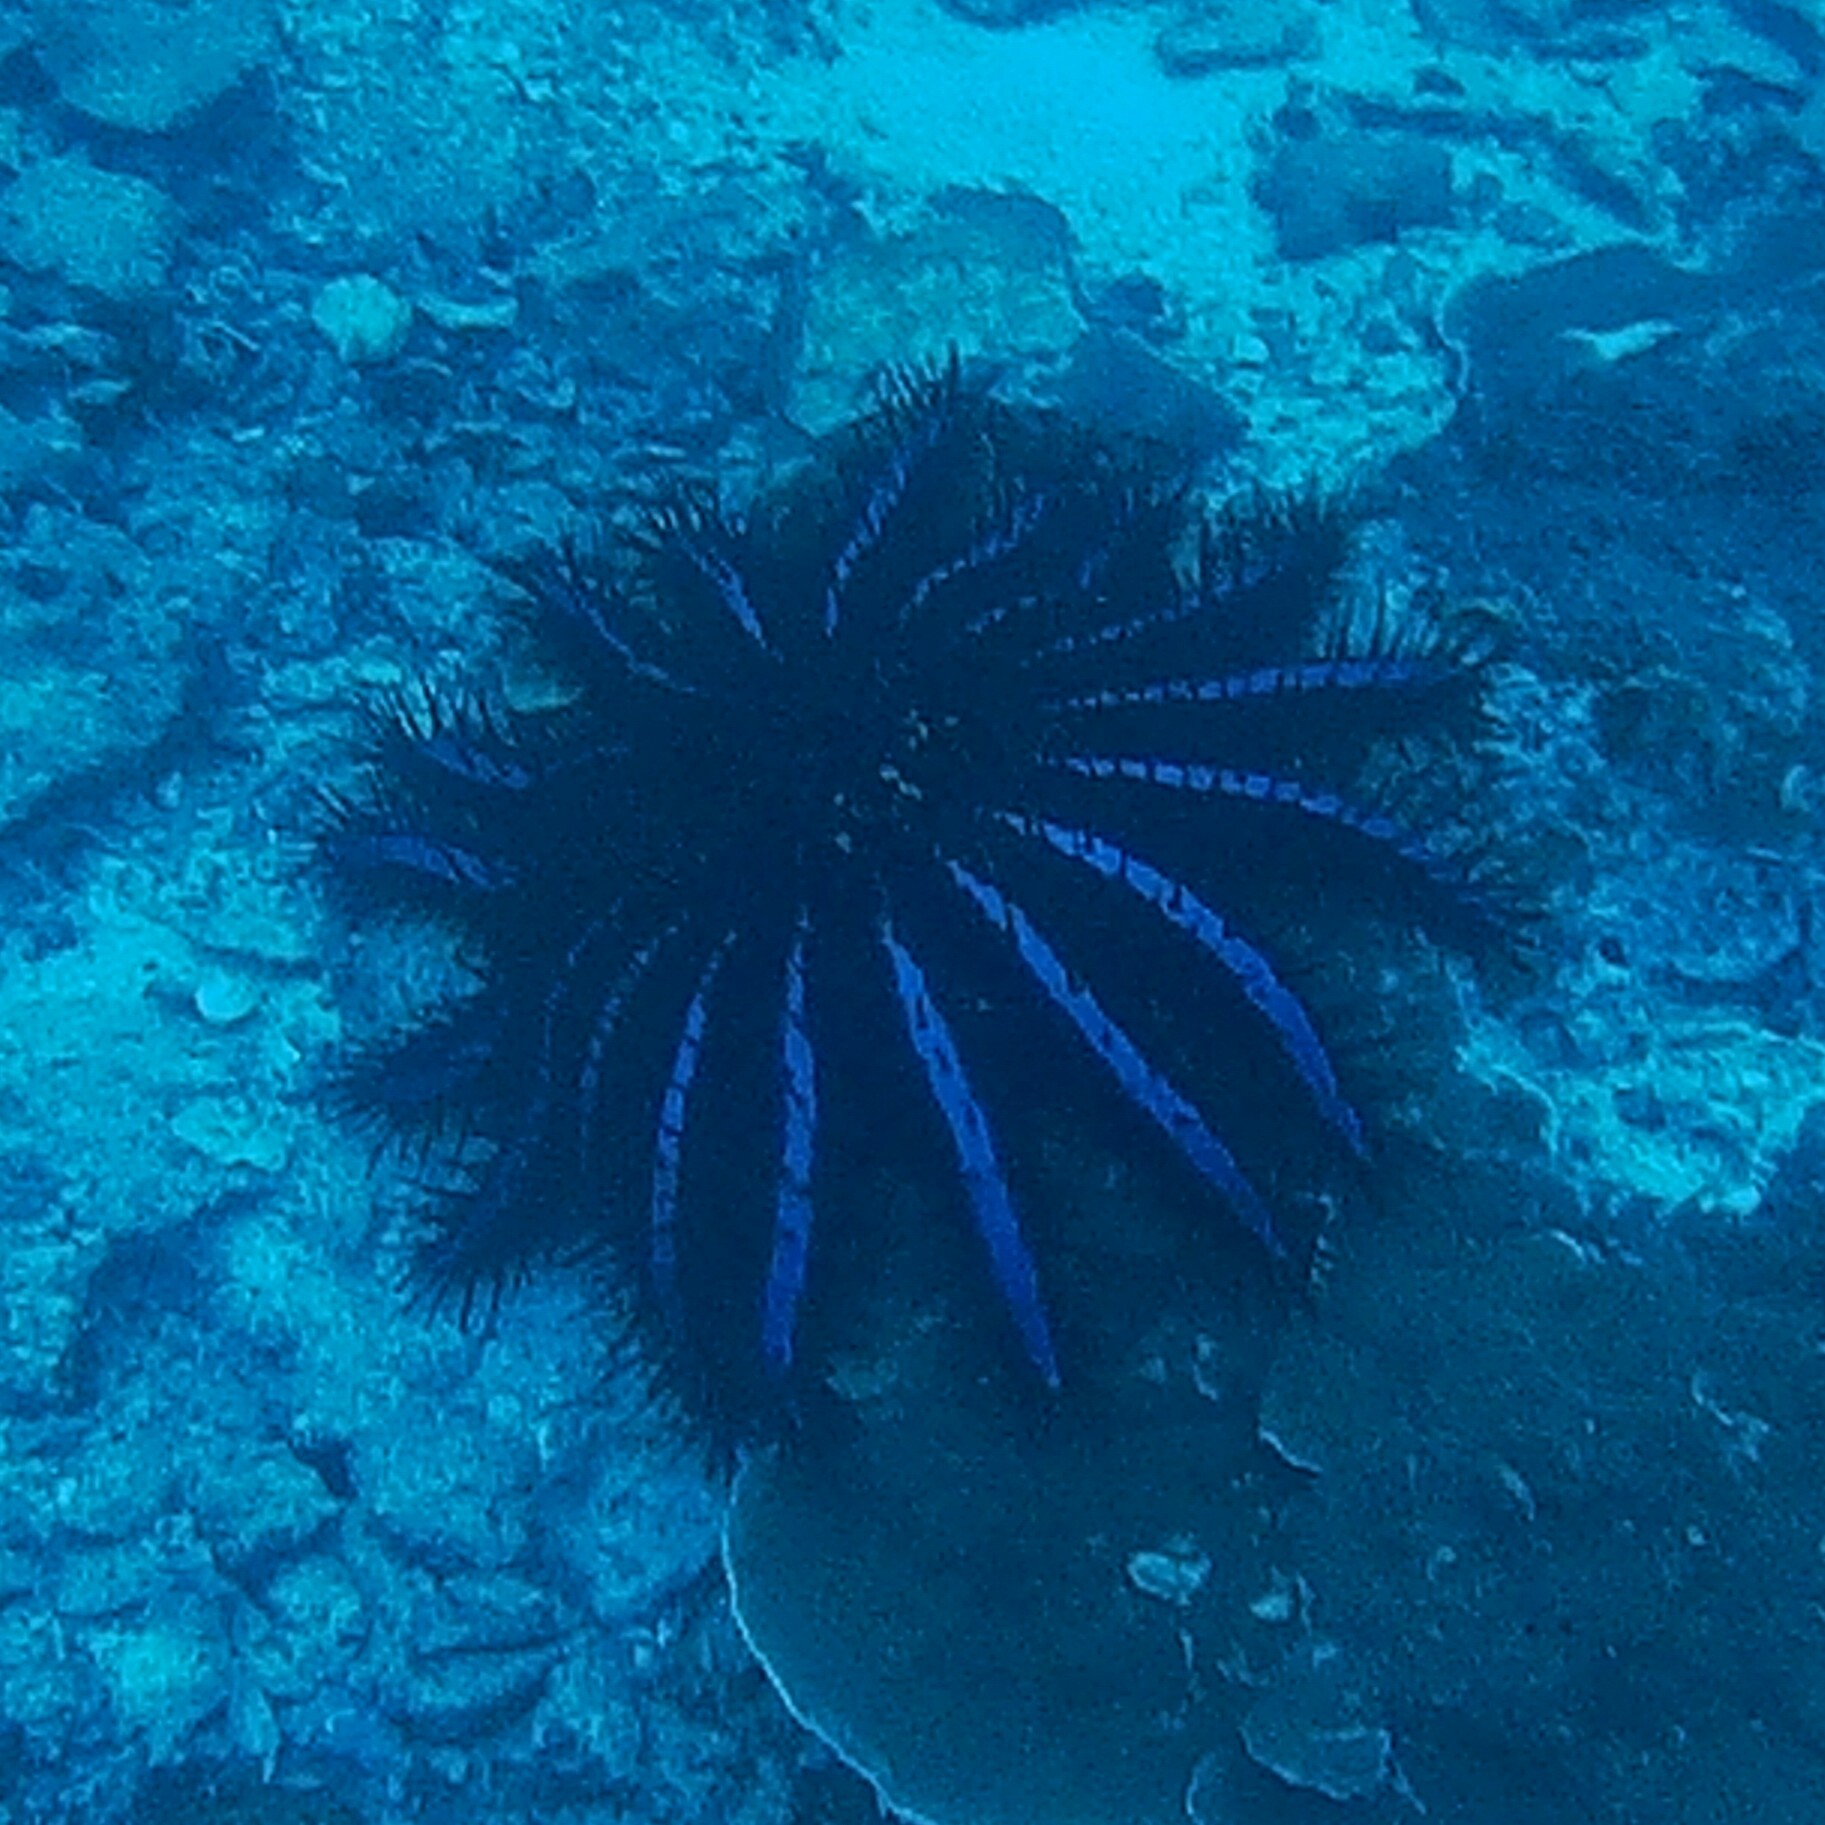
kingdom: Animalia
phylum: Echinodermata
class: Asteroidea
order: Valvatida
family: Acanthasteridae
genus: Acanthaster
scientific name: Acanthaster planci
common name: Crown-of-thorns
